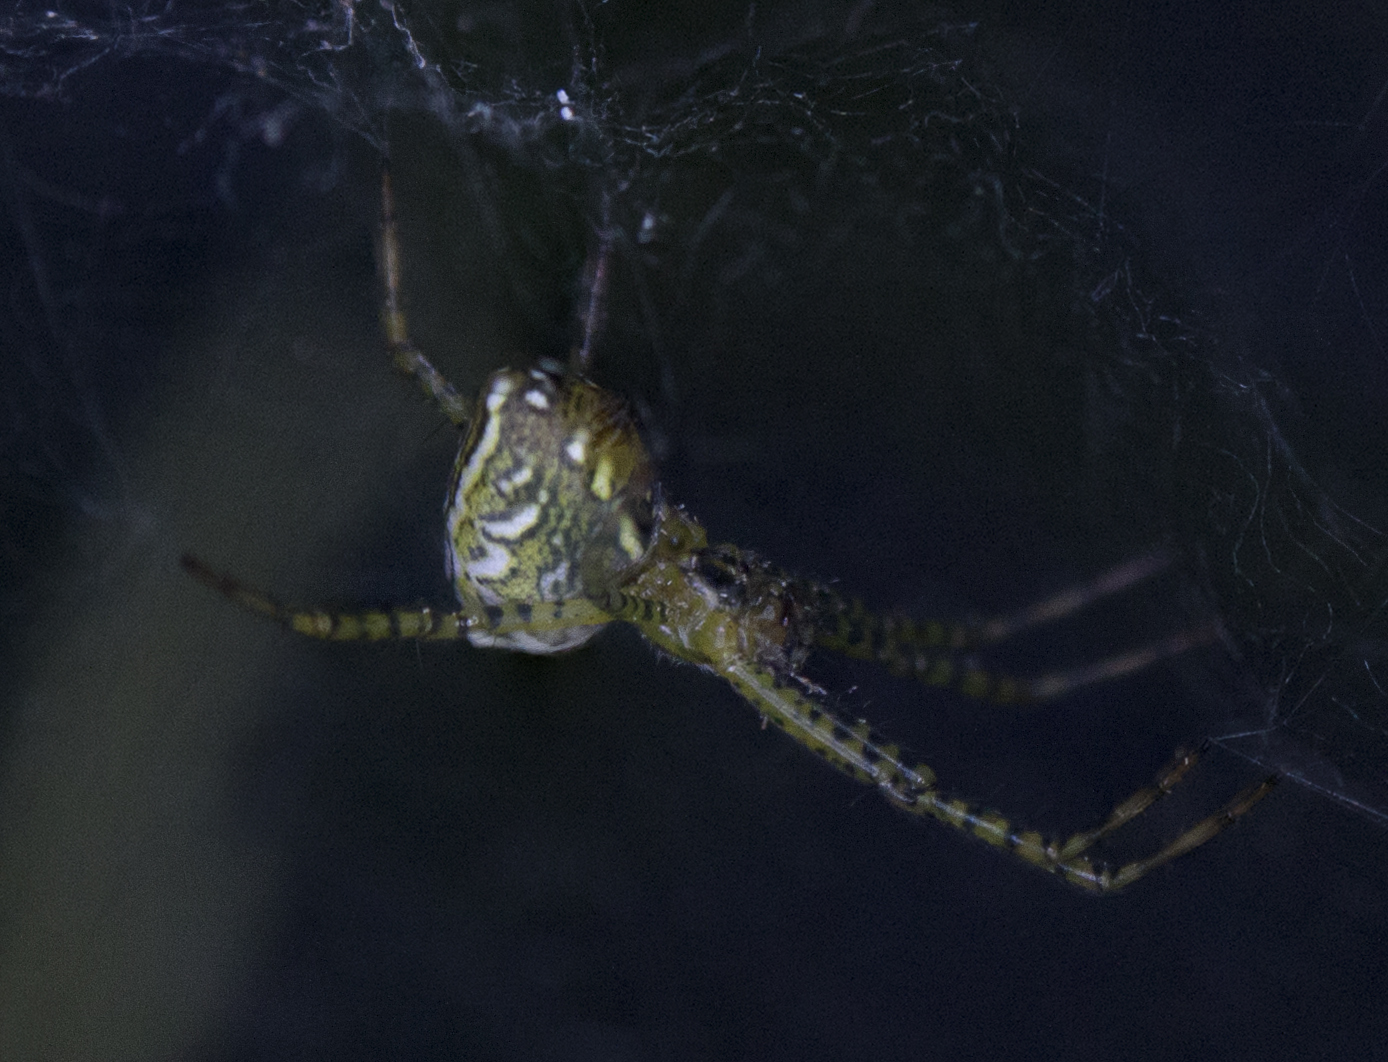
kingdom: Chromista
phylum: Ochrophyta
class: Dictyochophyceae
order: Pedinellales
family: Cyrtophoraceae
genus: Cyrtophora
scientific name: Cyrtophora moluccensis
